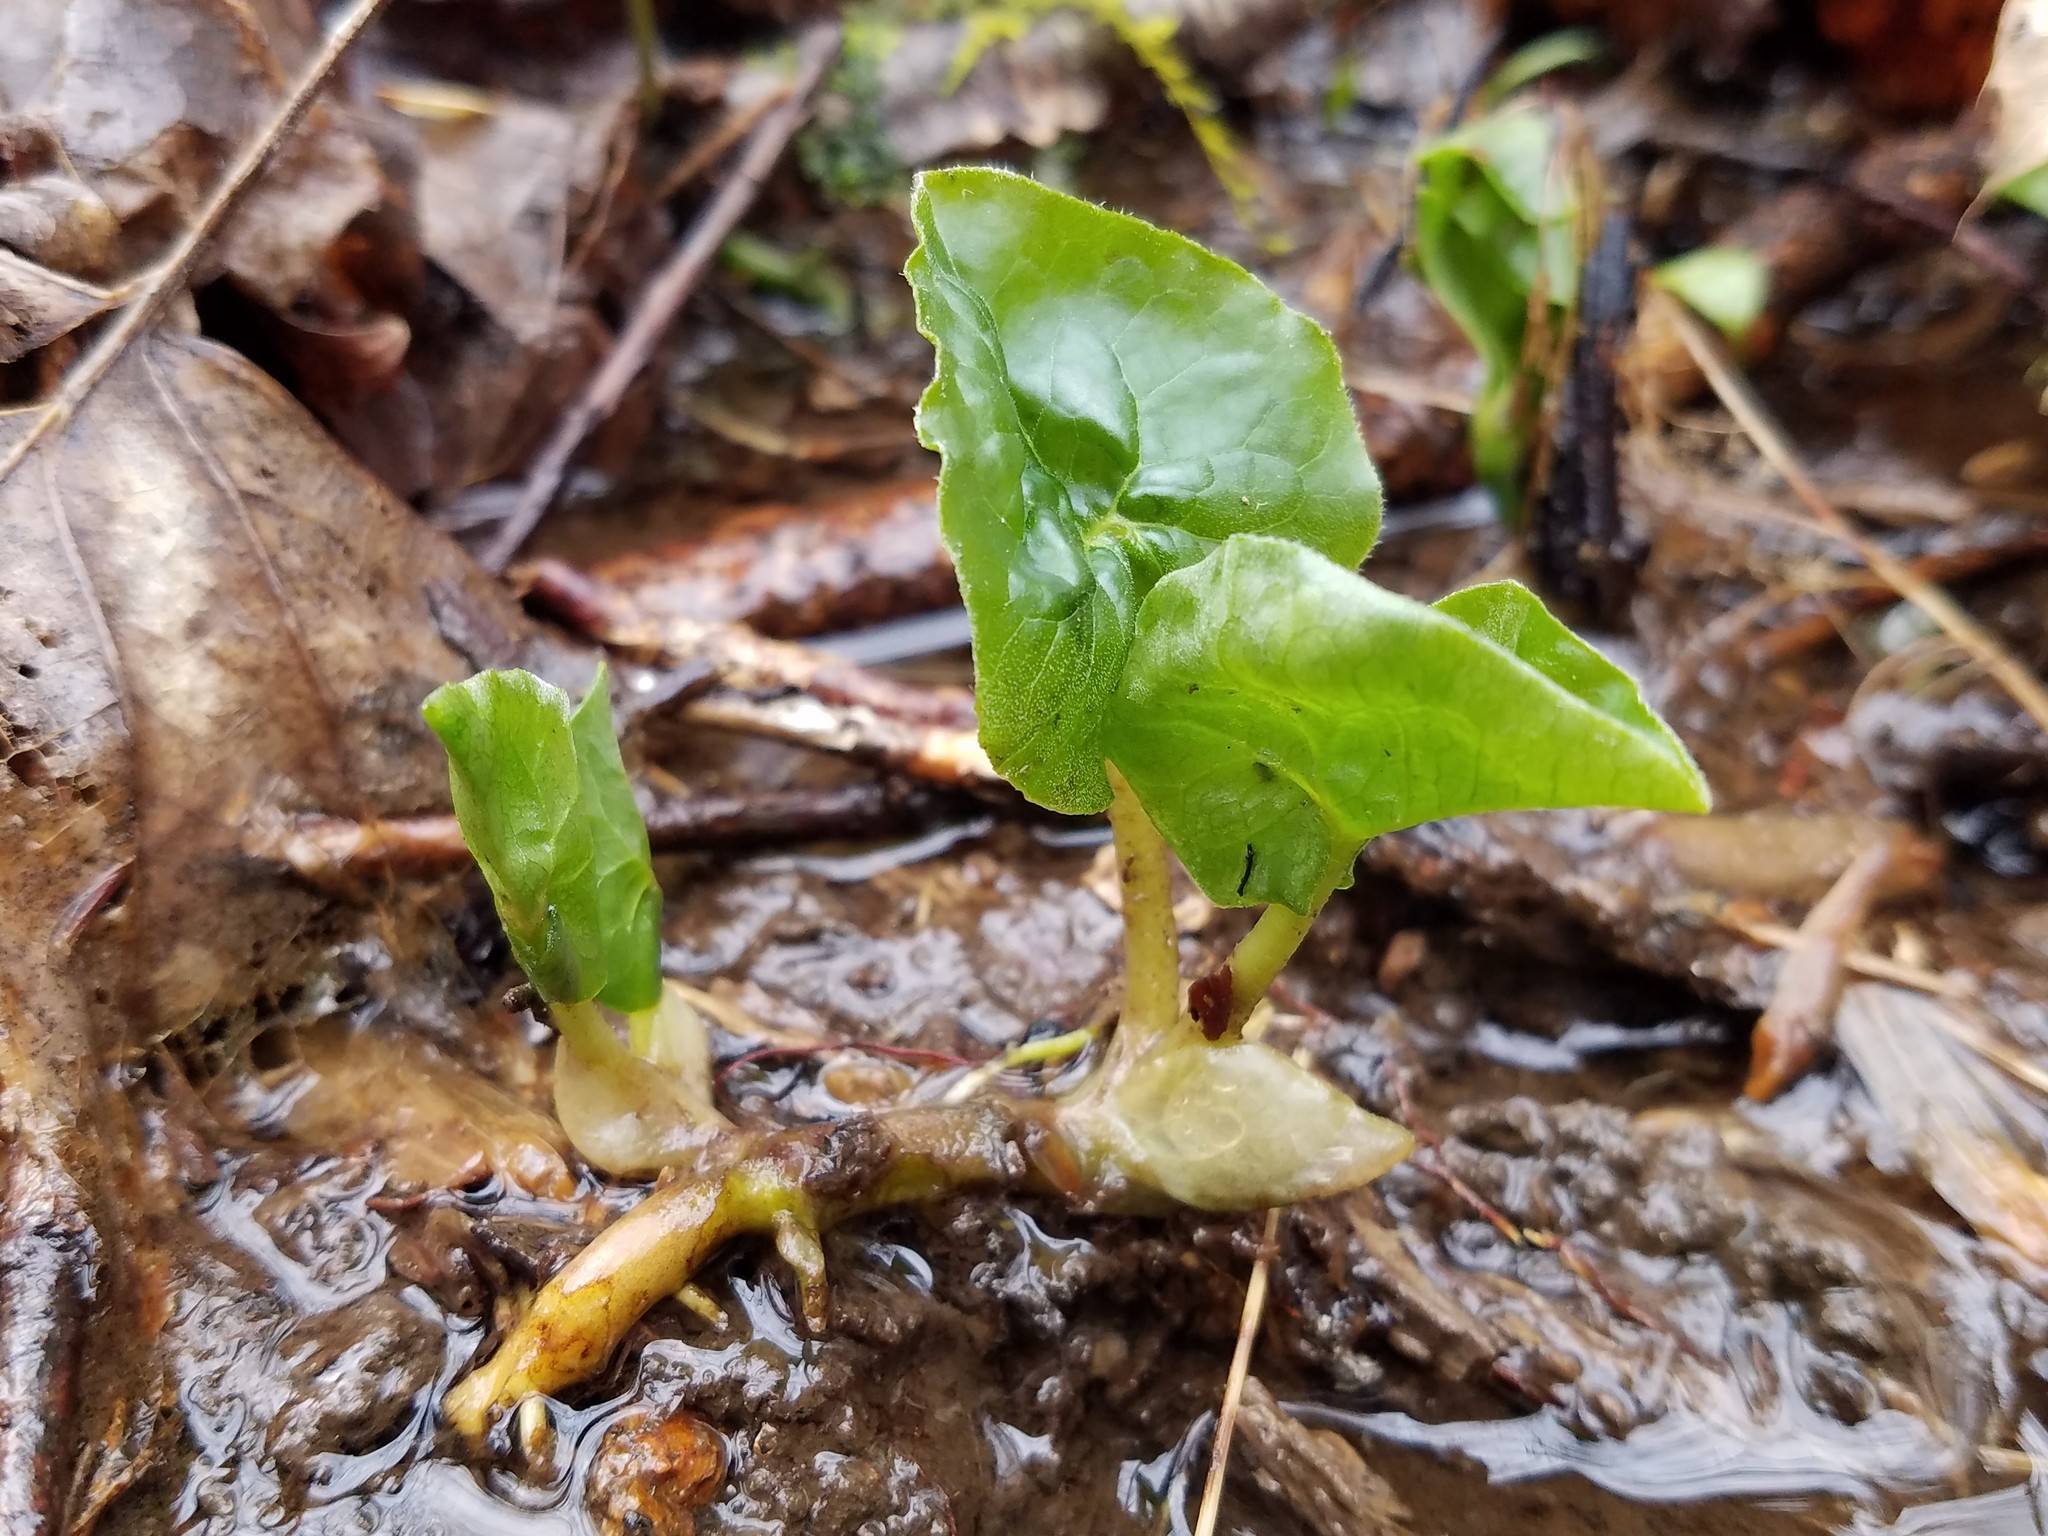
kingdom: Plantae
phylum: Tracheophyta
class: Magnoliopsida
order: Piperales
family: Aristolochiaceae
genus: Asarum
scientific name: Asarum canadense
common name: Wild ginger
